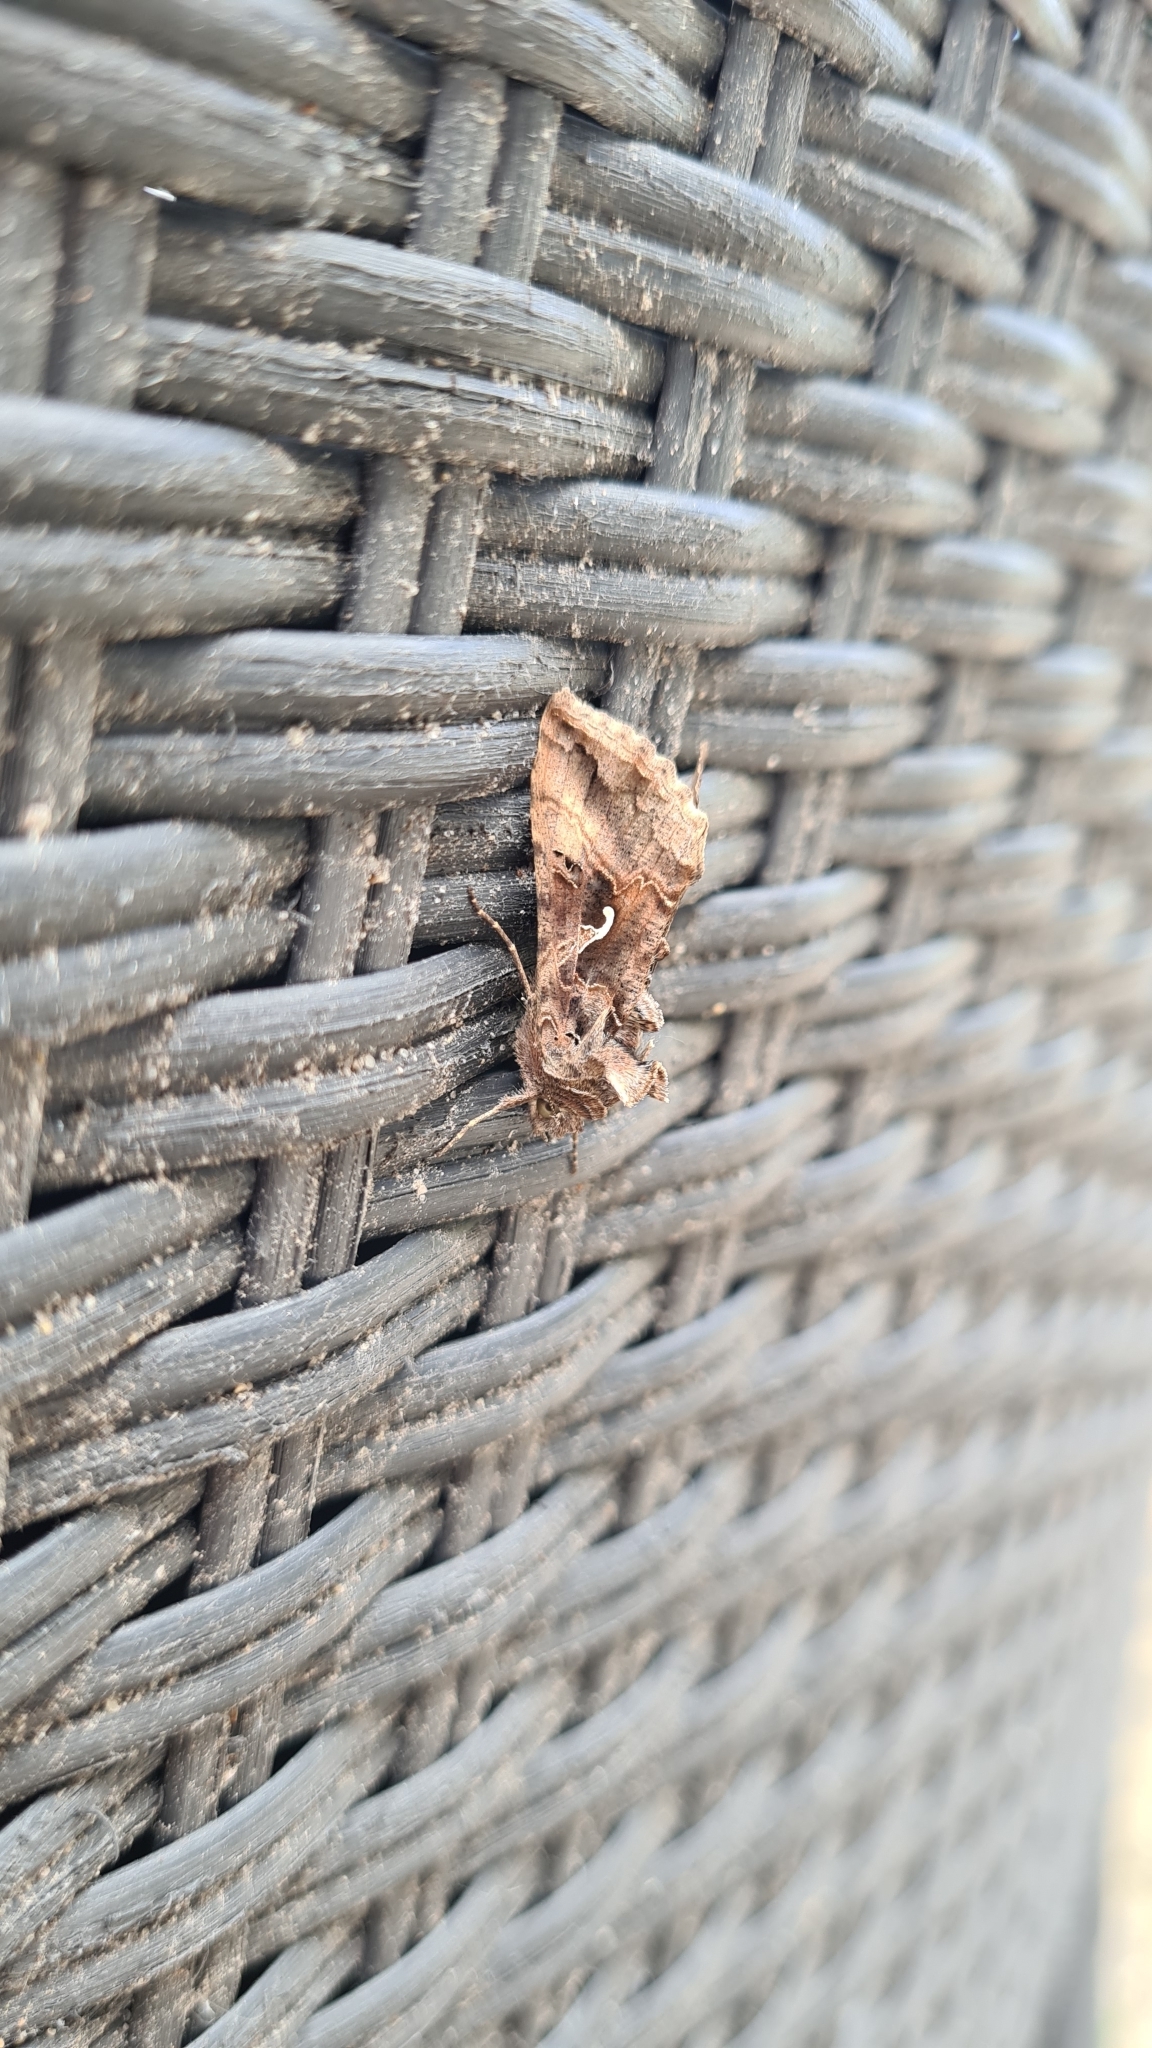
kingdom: Animalia
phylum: Arthropoda
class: Insecta
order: Lepidoptera
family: Noctuidae
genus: Autographa
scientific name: Autographa gamma
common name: Silver y
